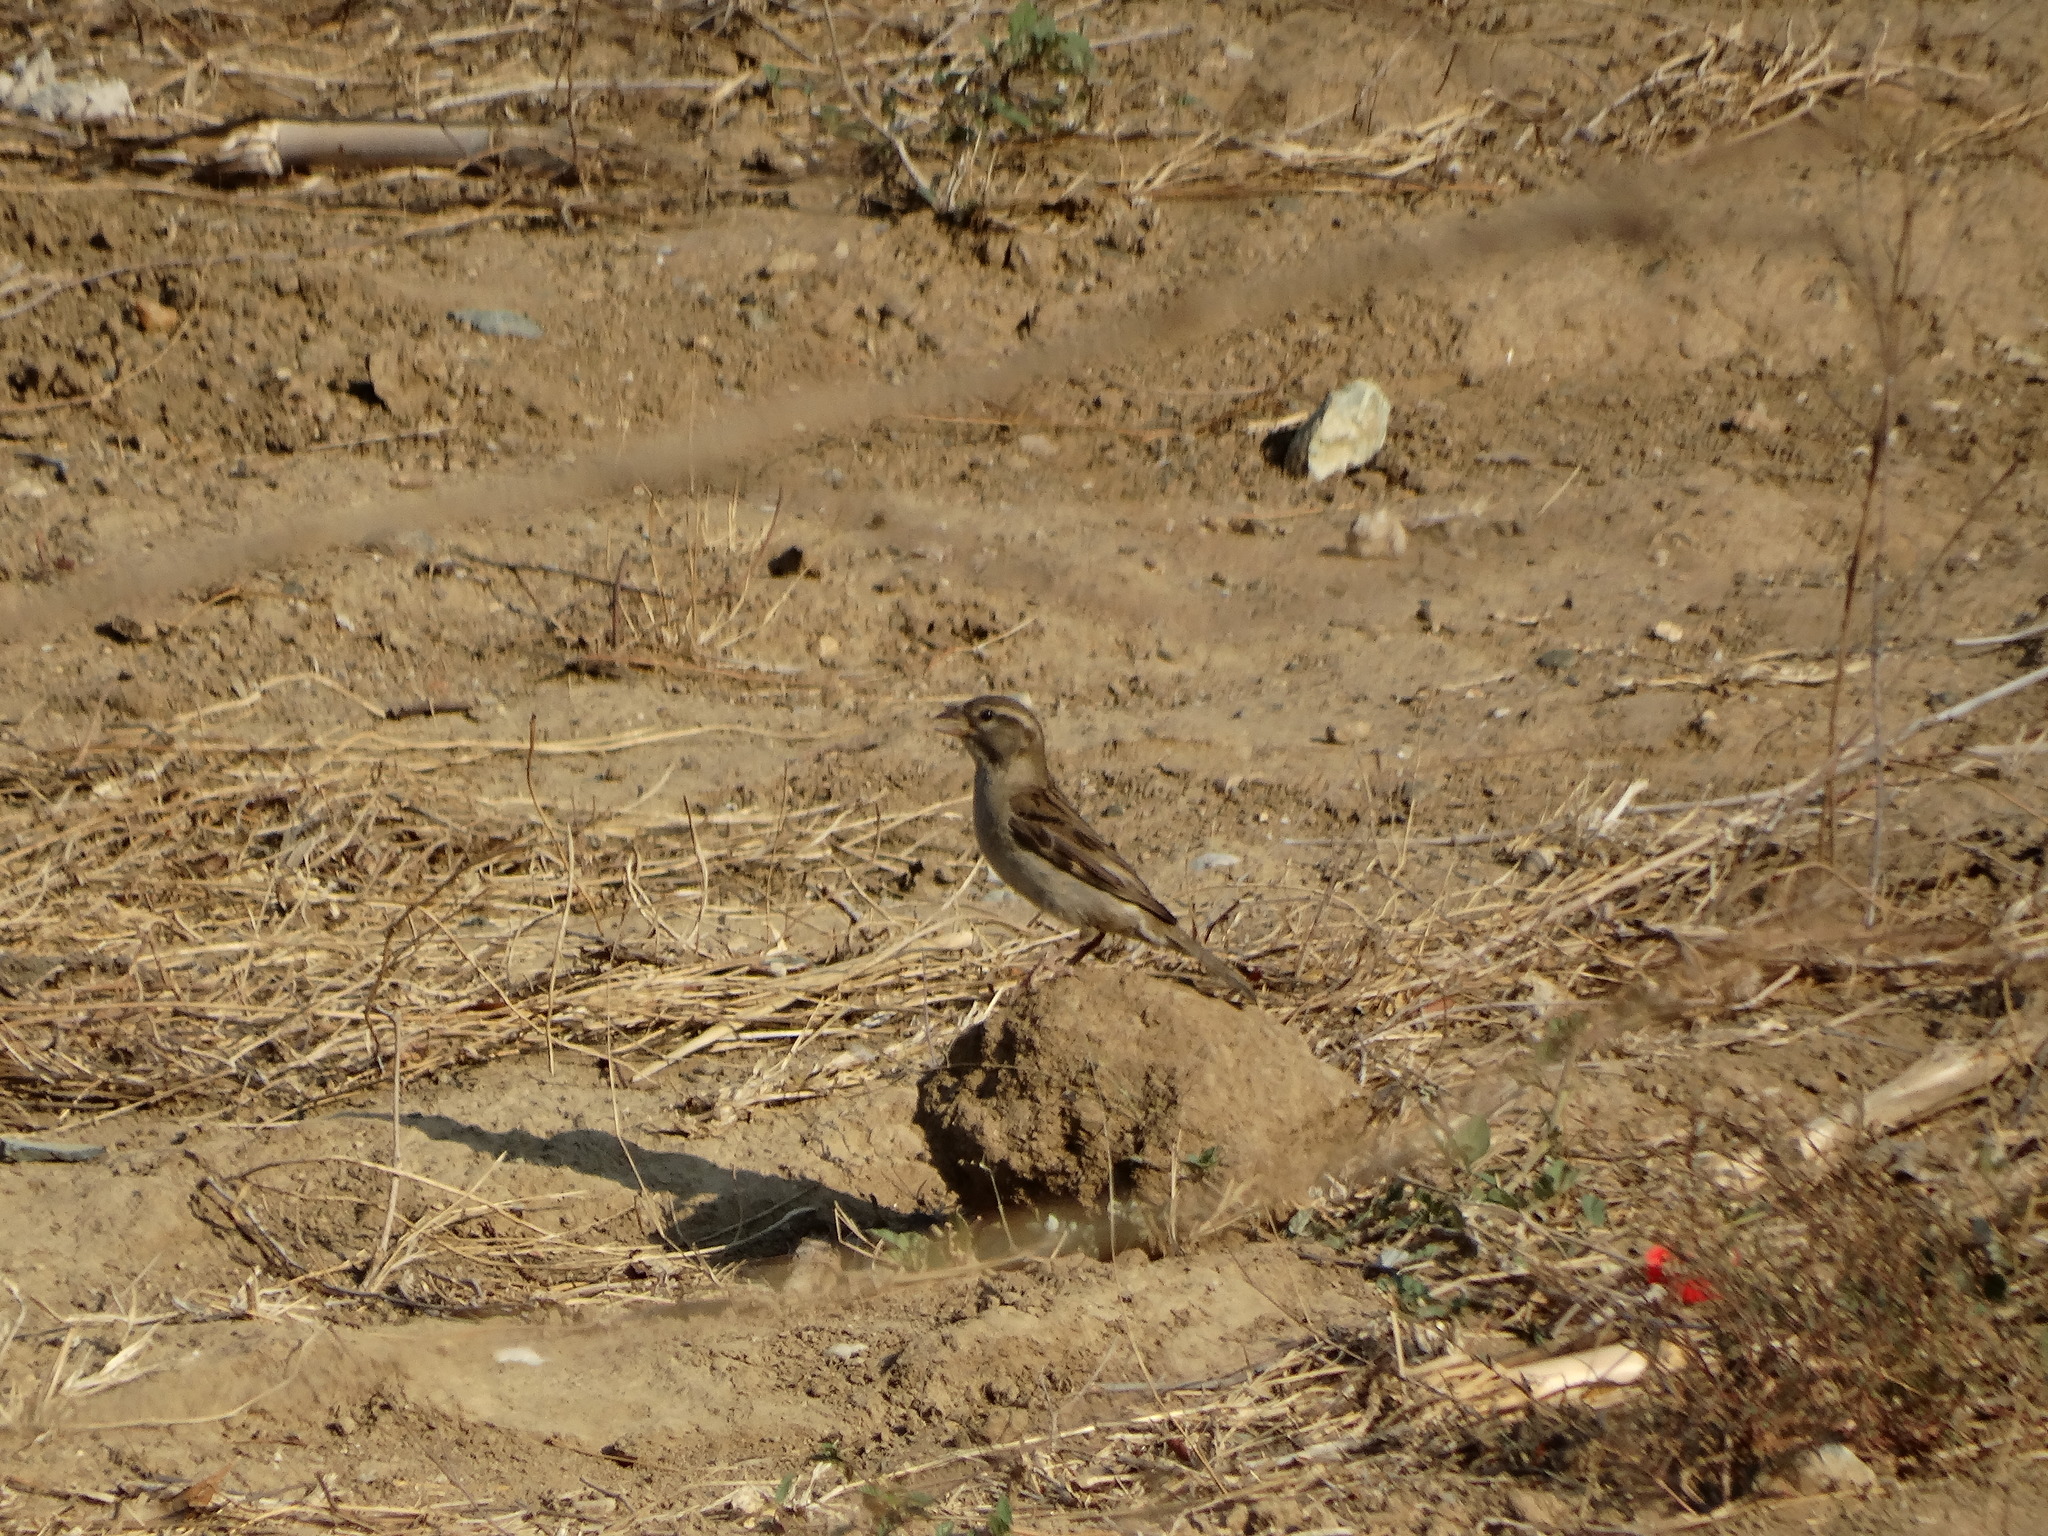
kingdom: Animalia
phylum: Chordata
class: Aves
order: Passeriformes
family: Passeridae
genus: Passer
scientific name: Passer domesticus
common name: House sparrow
